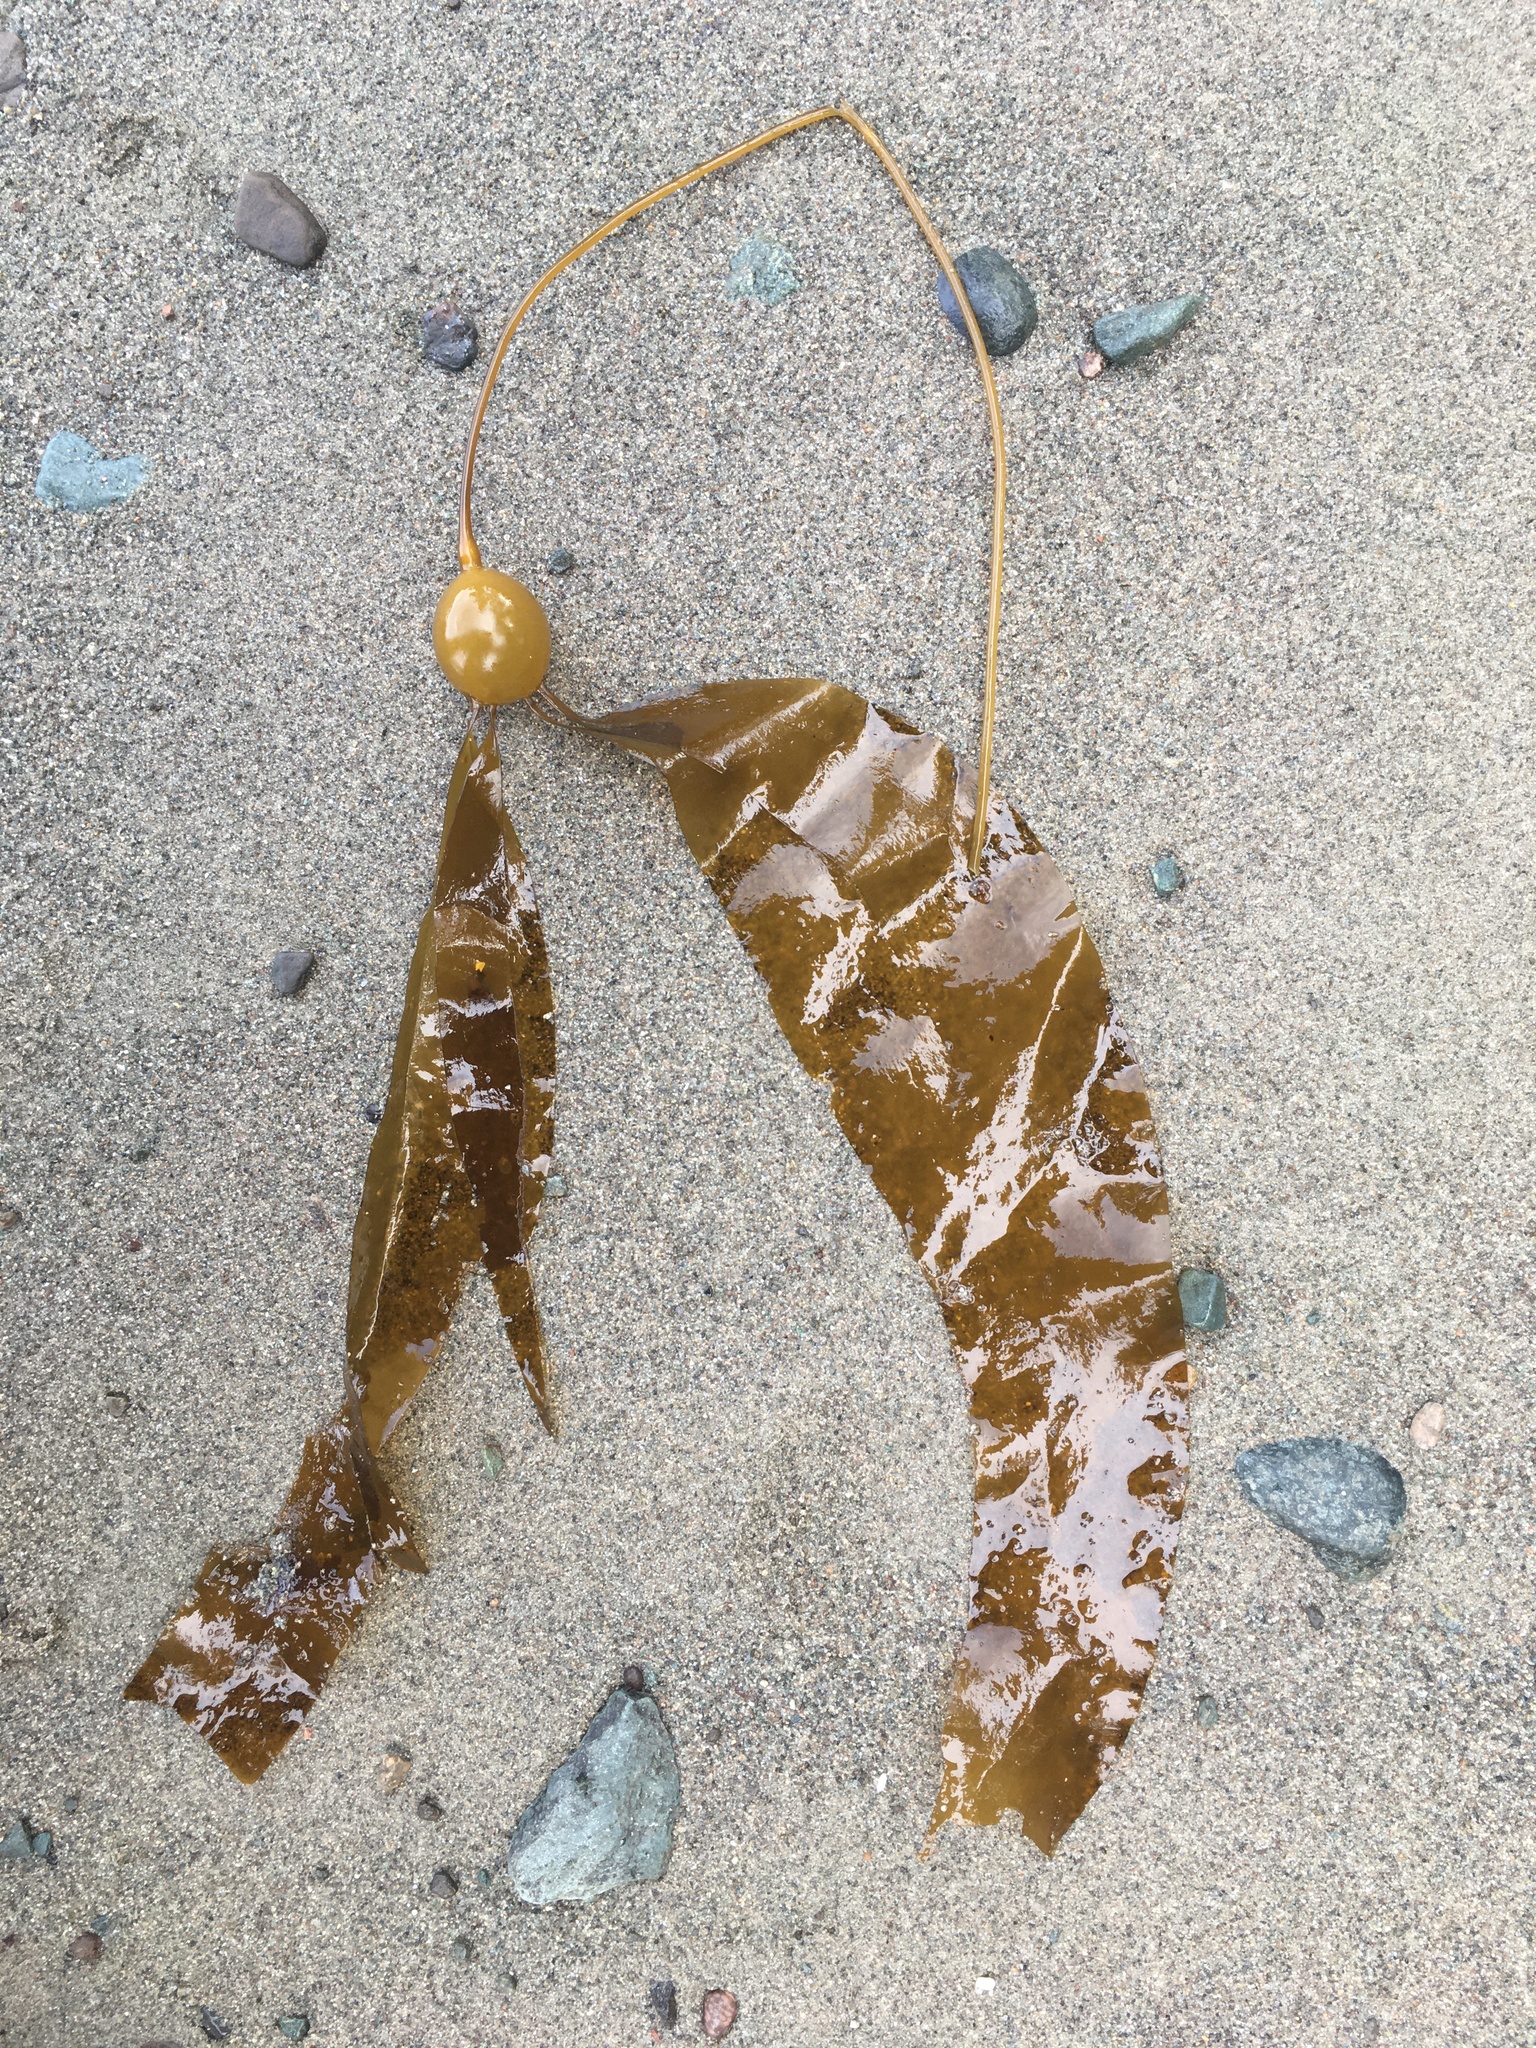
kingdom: Chromista
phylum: Ochrophyta
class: Phaeophyceae
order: Laminariales
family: Laminariaceae
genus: Nereocystis
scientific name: Nereocystis luetkeana
